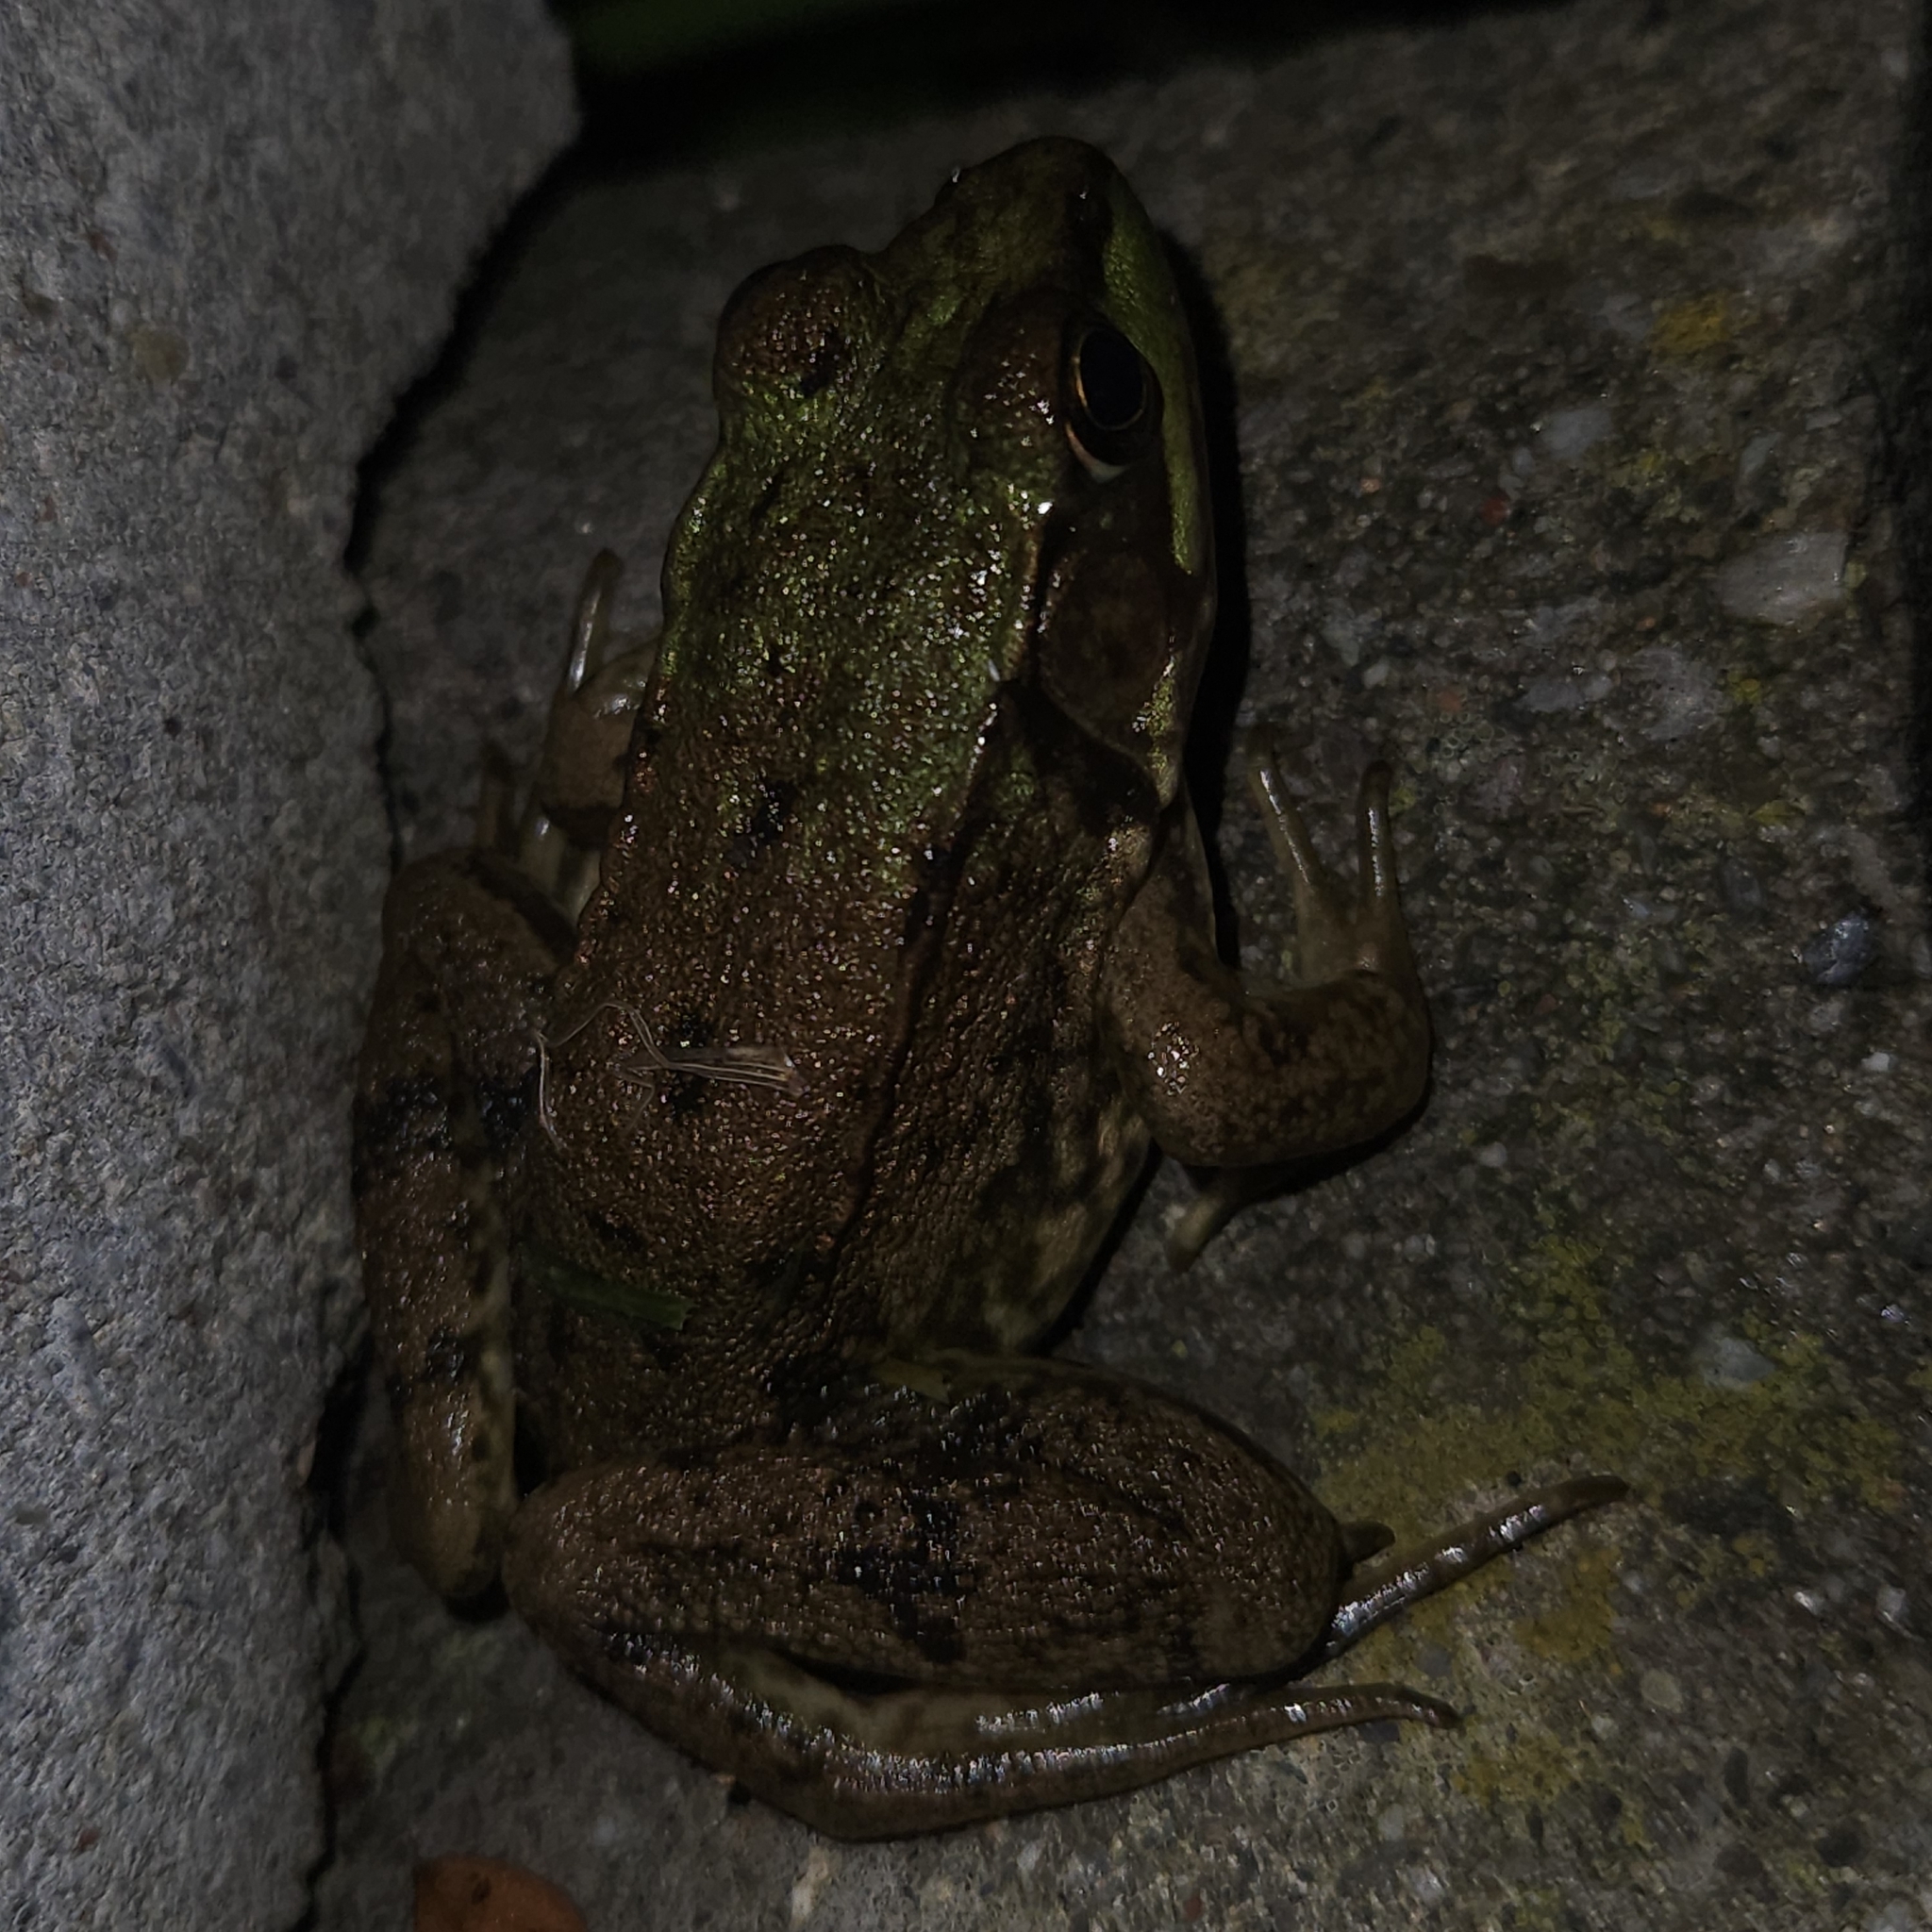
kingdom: Animalia
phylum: Chordata
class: Amphibia
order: Anura
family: Ranidae
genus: Lithobates
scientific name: Lithobates clamitans
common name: Green frog
